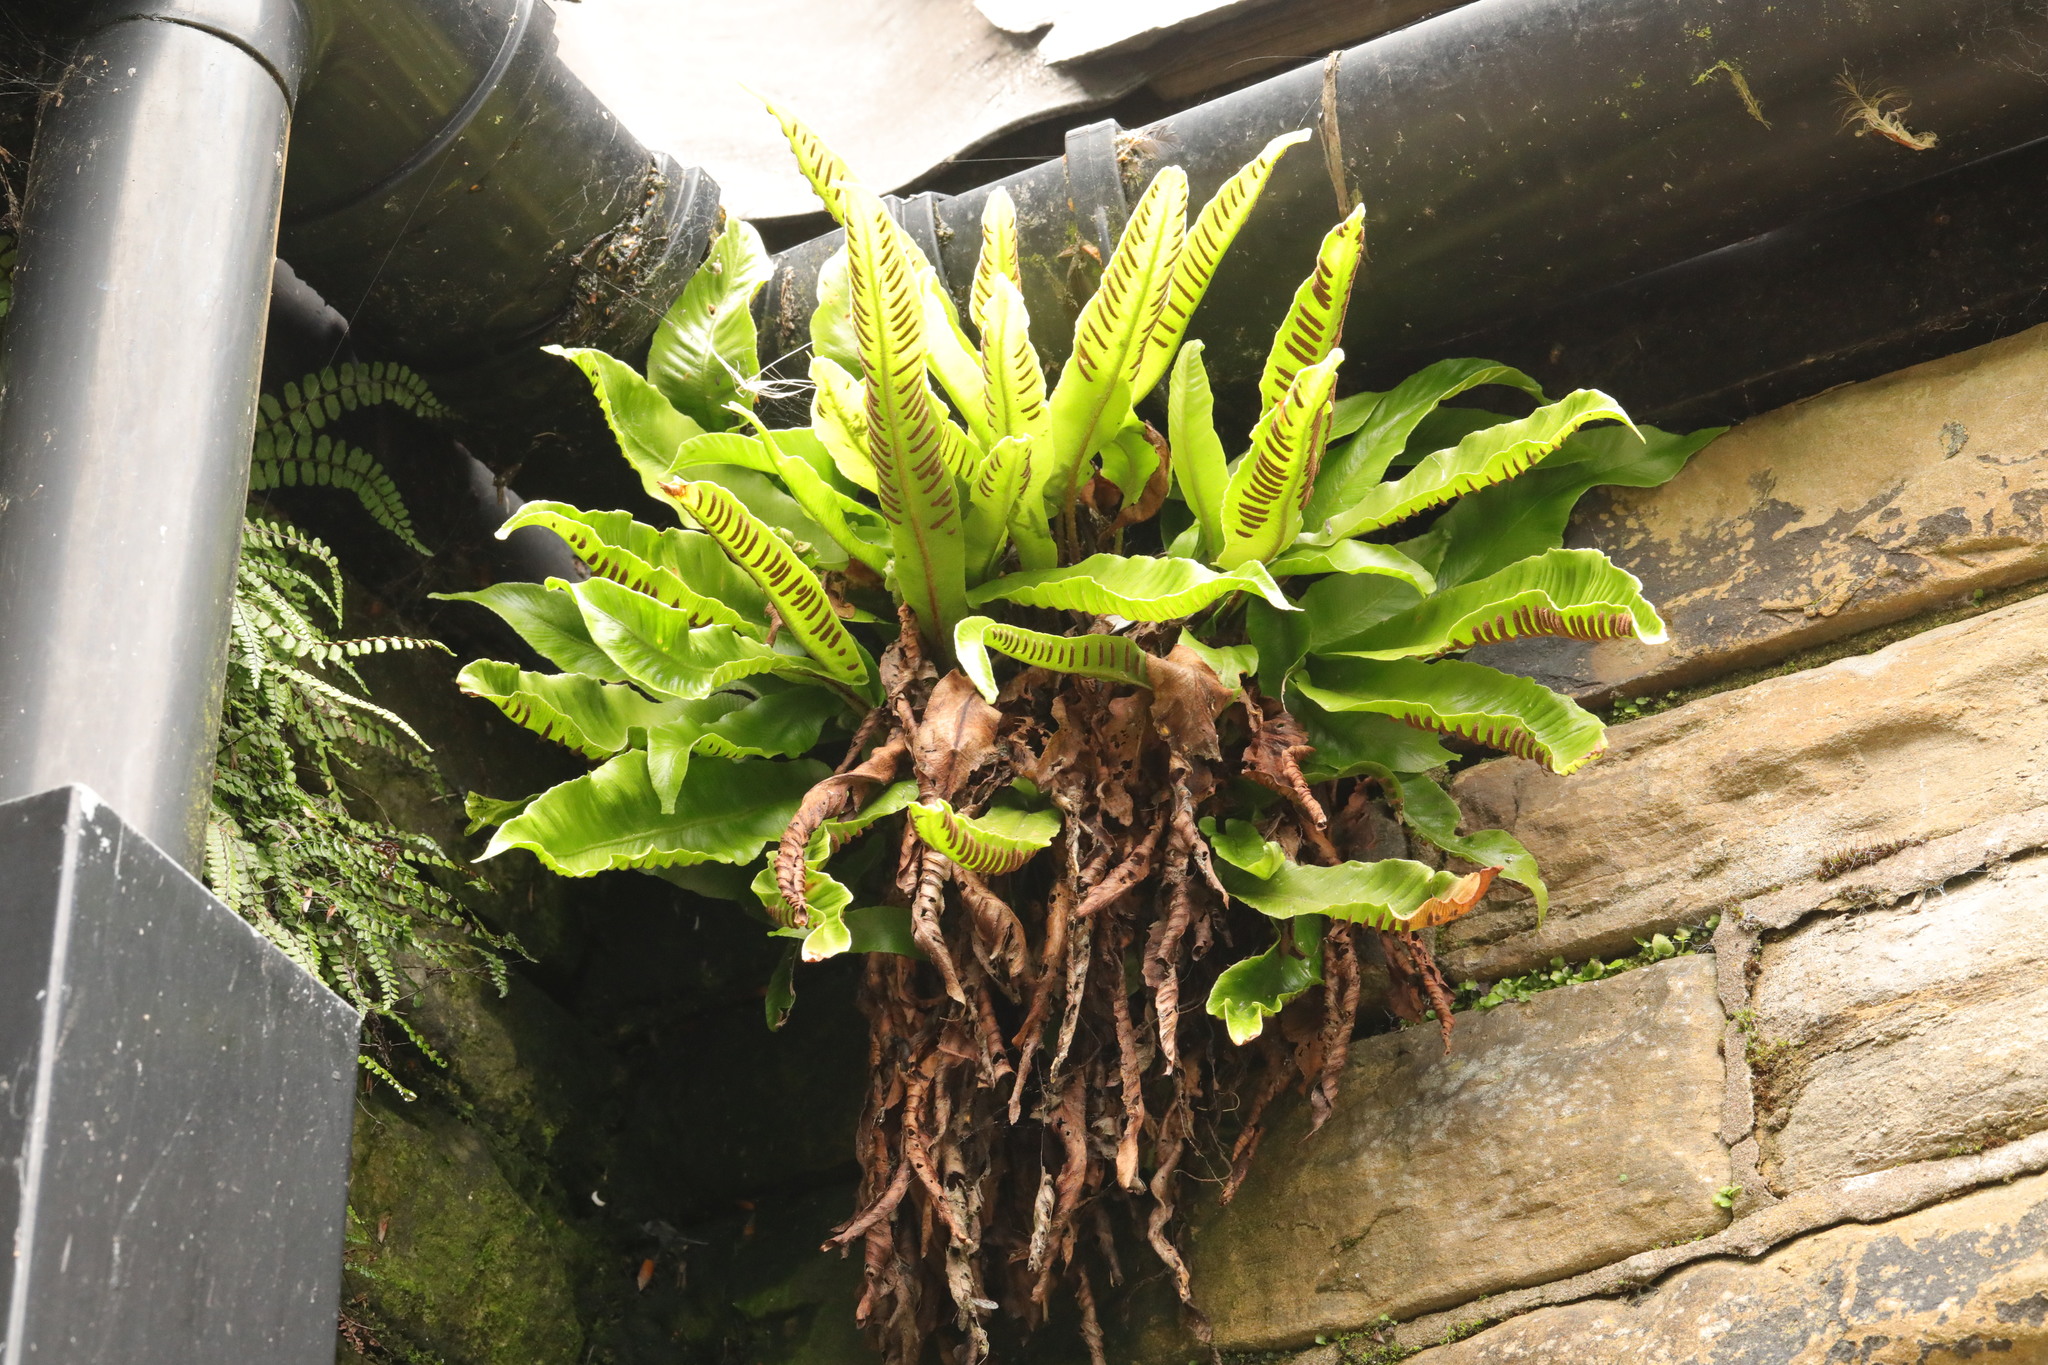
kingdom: Plantae
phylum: Tracheophyta
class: Polypodiopsida
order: Polypodiales
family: Aspleniaceae
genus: Asplenium
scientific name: Asplenium scolopendrium
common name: Hart's-tongue fern
